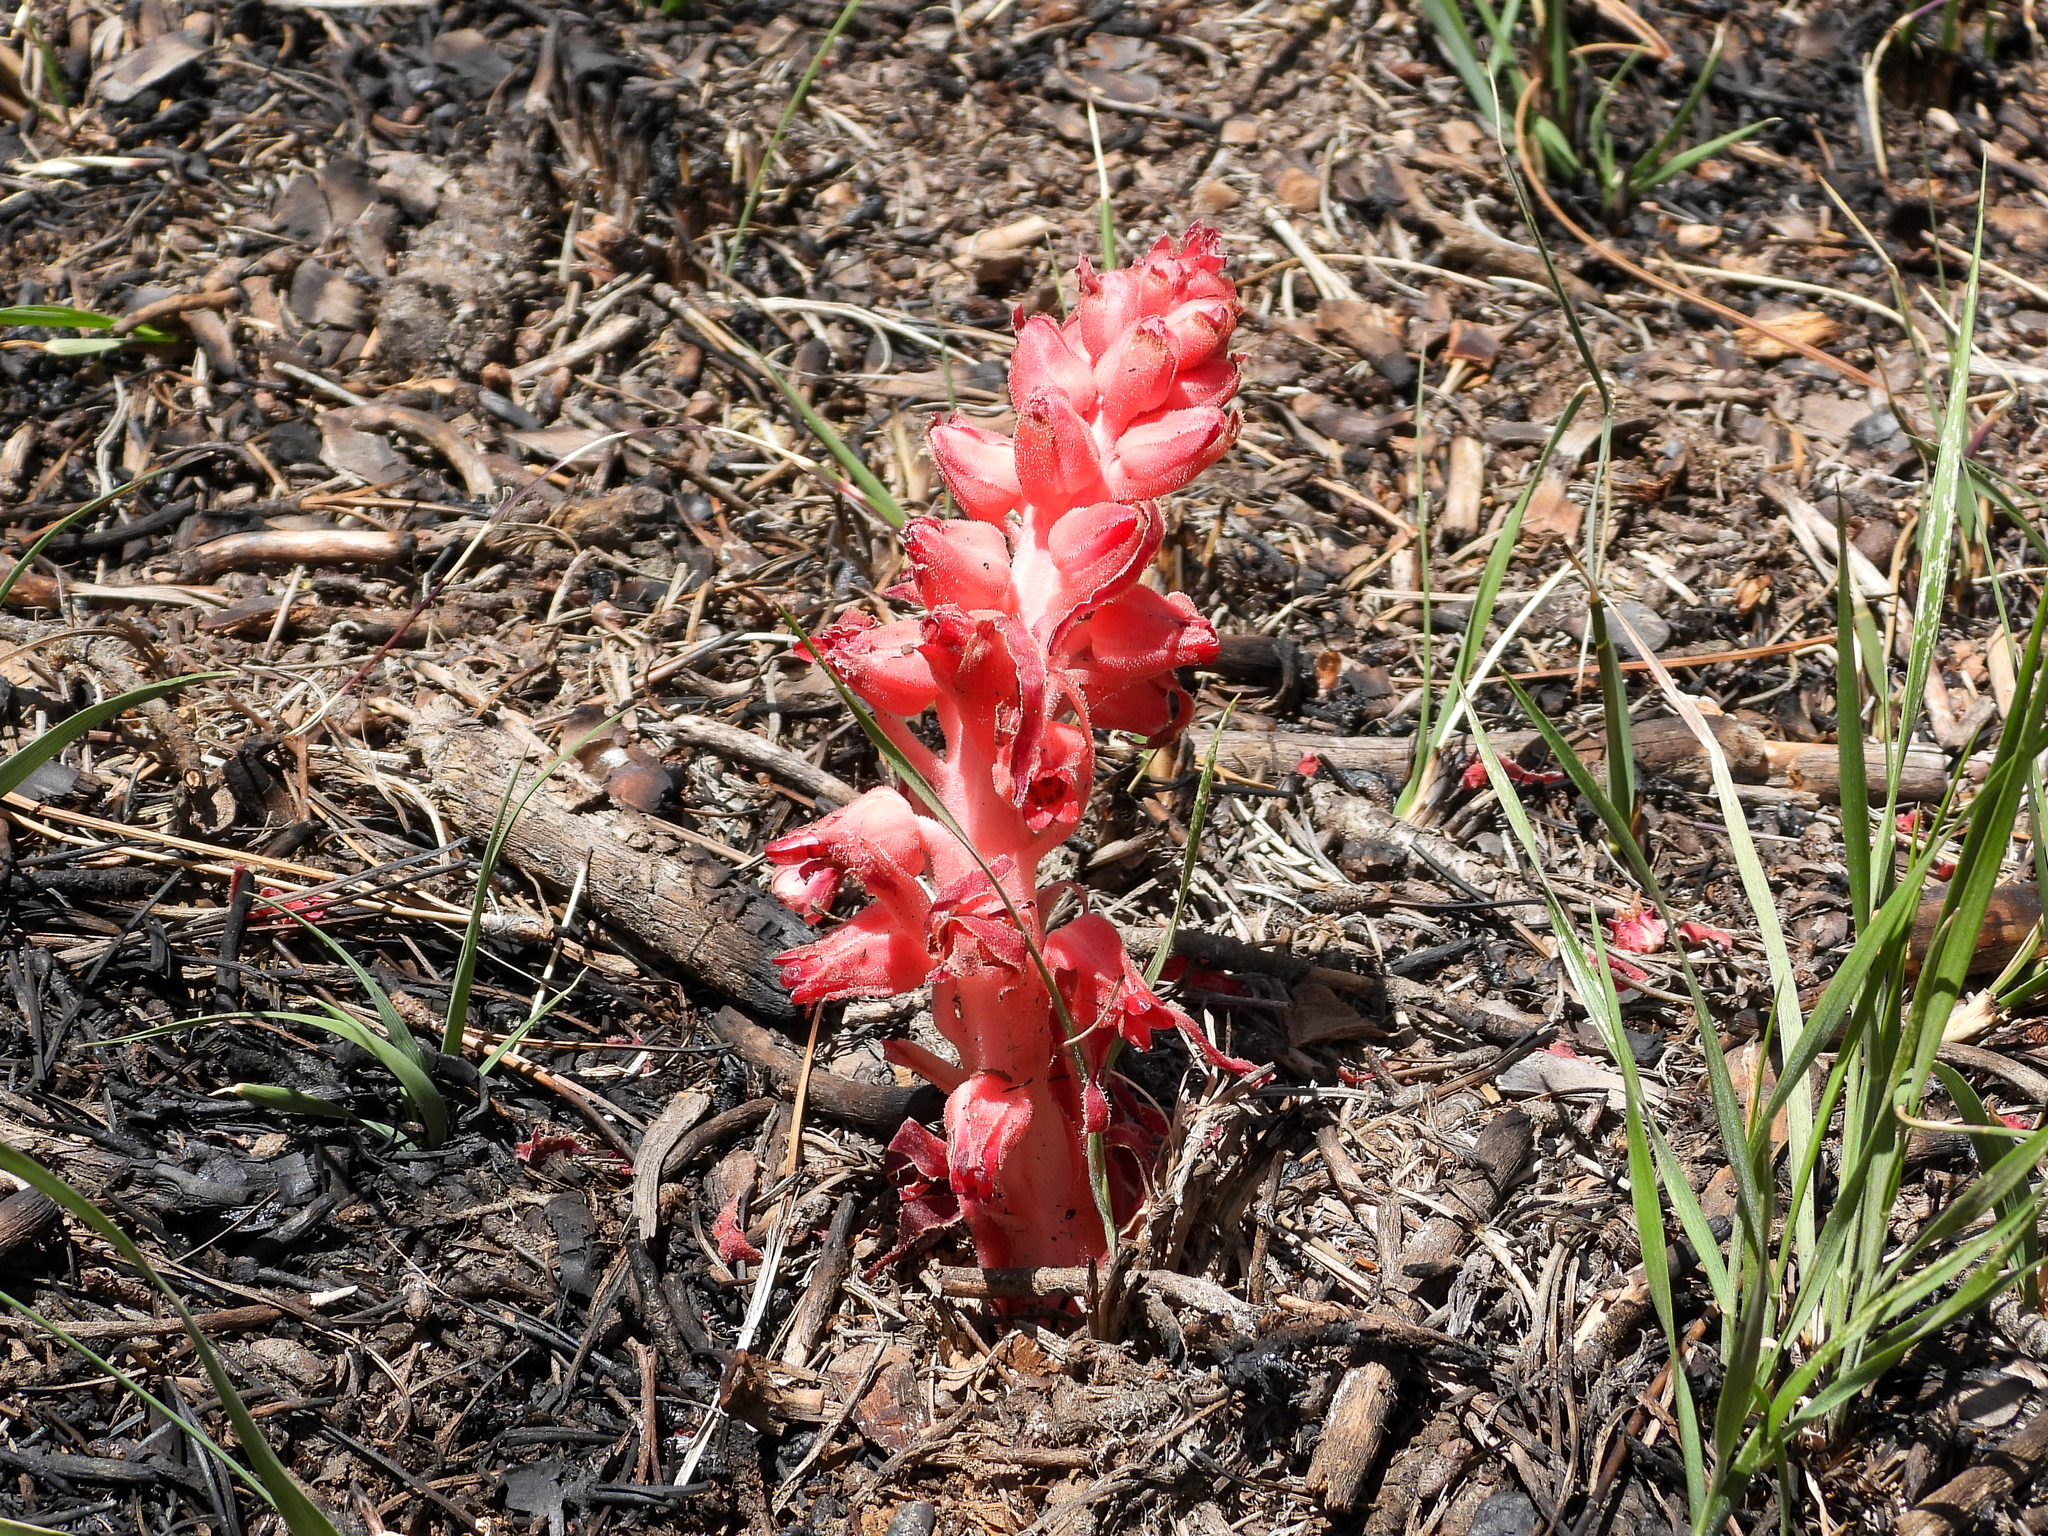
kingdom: Plantae
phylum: Tracheophyta
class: Magnoliopsida
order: Ericales
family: Ericaceae
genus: Sarcodes
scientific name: Sarcodes sanguinea
